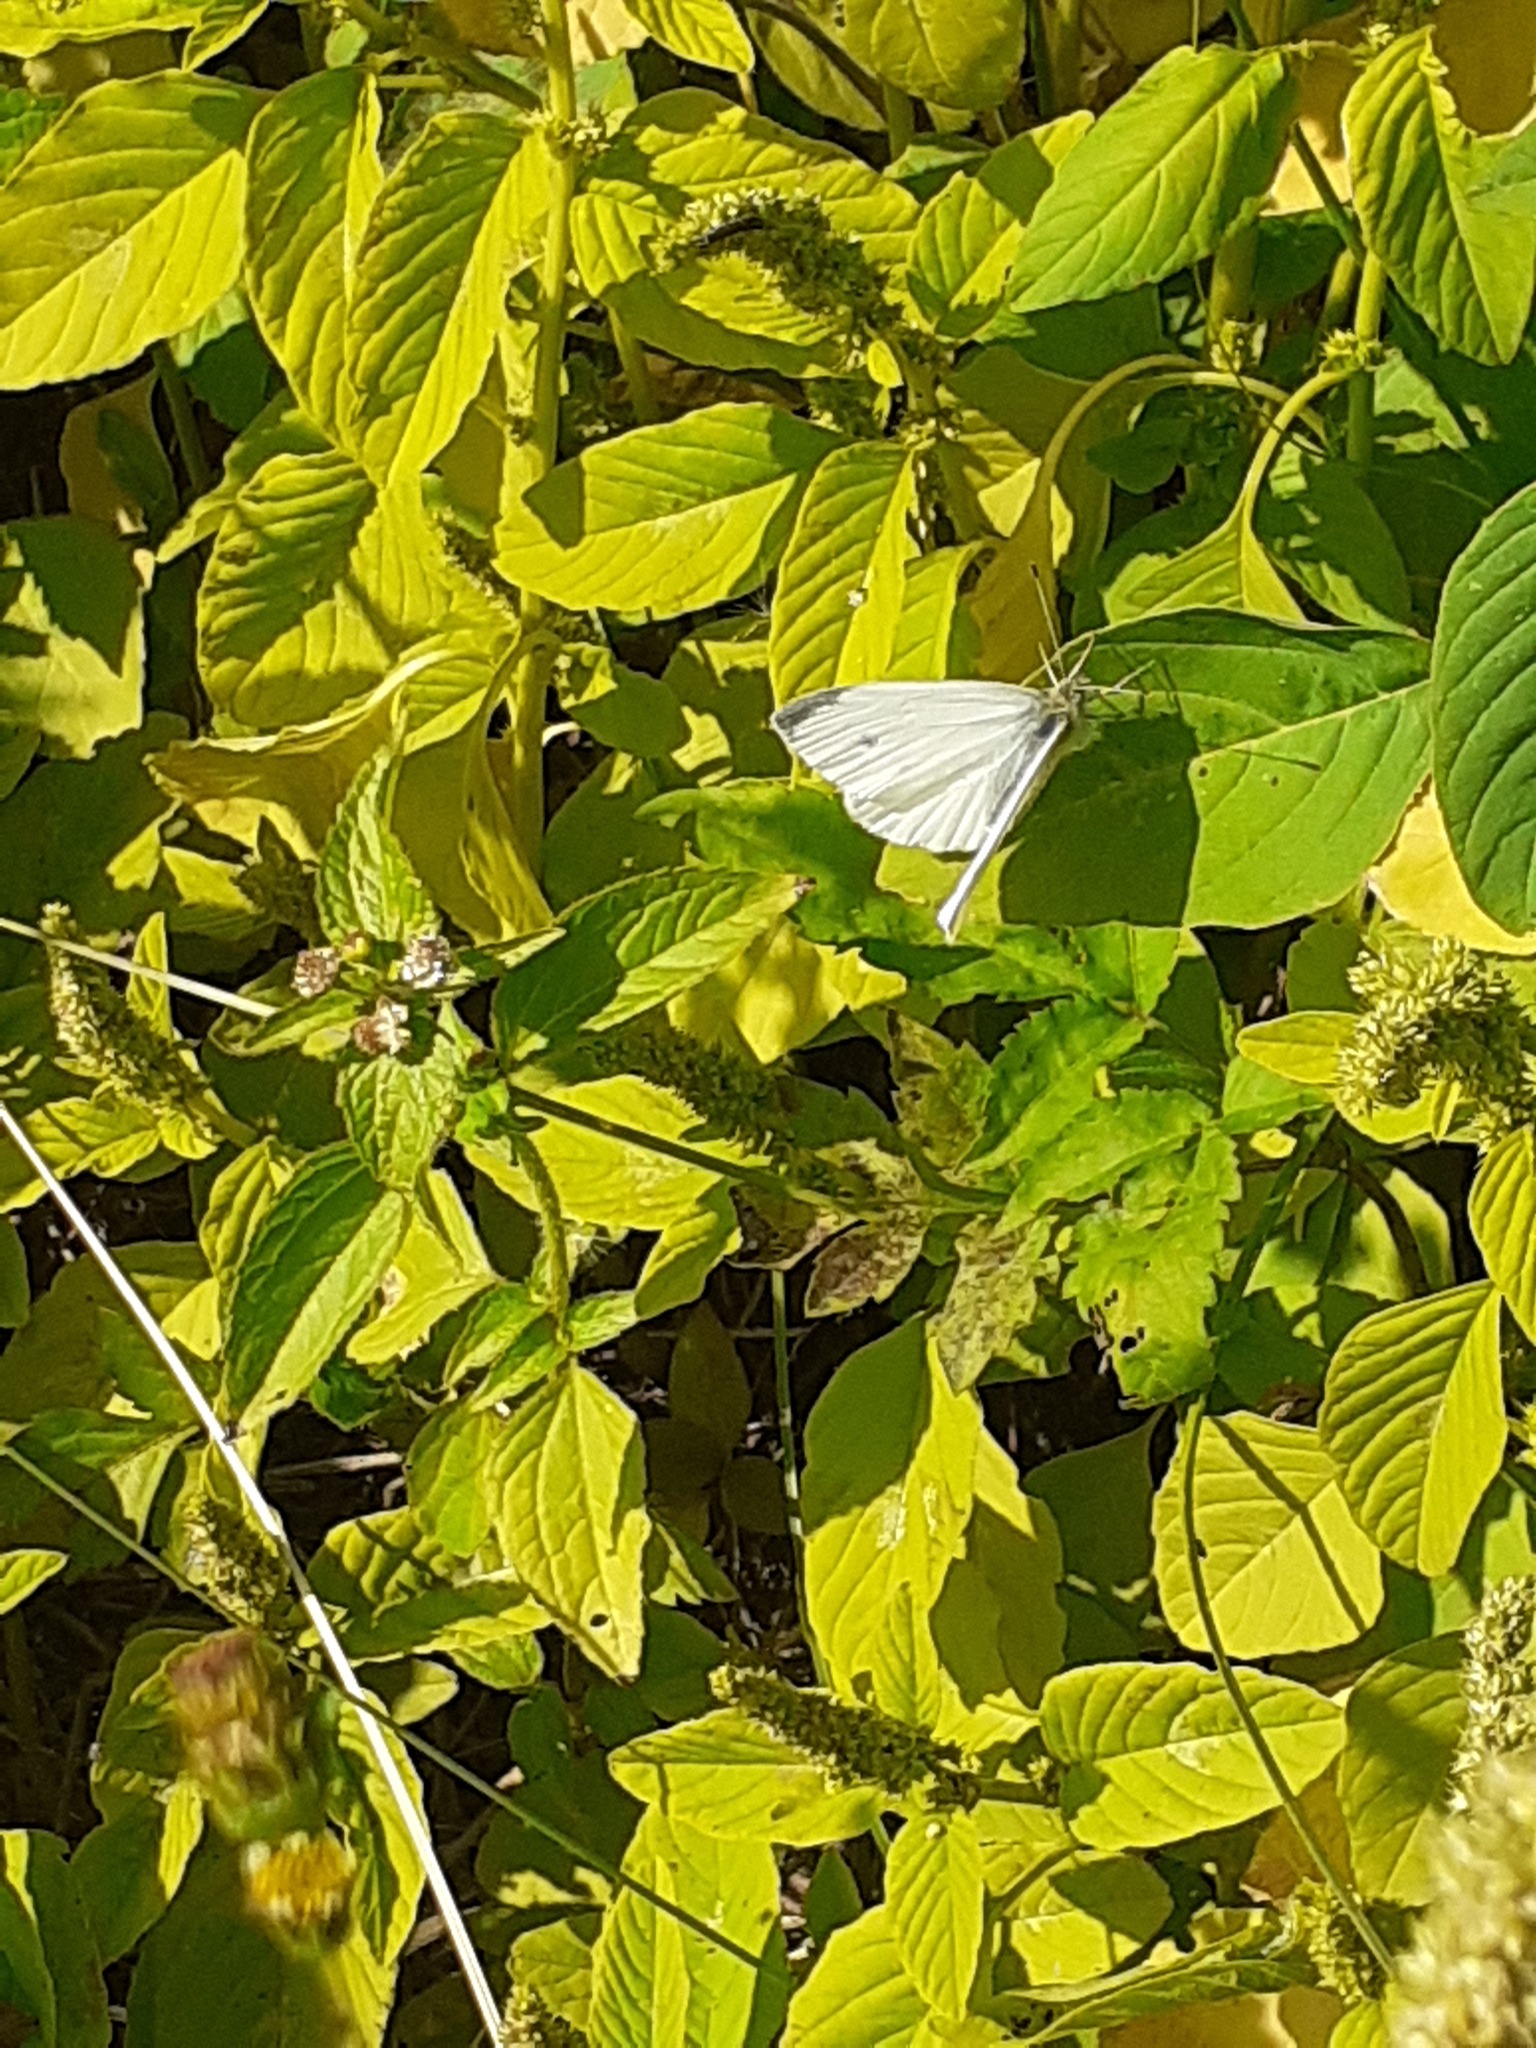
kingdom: Animalia
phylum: Arthropoda
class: Insecta
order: Lepidoptera
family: Pieridae
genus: Pieris
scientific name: Pieris rapae
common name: Small white
